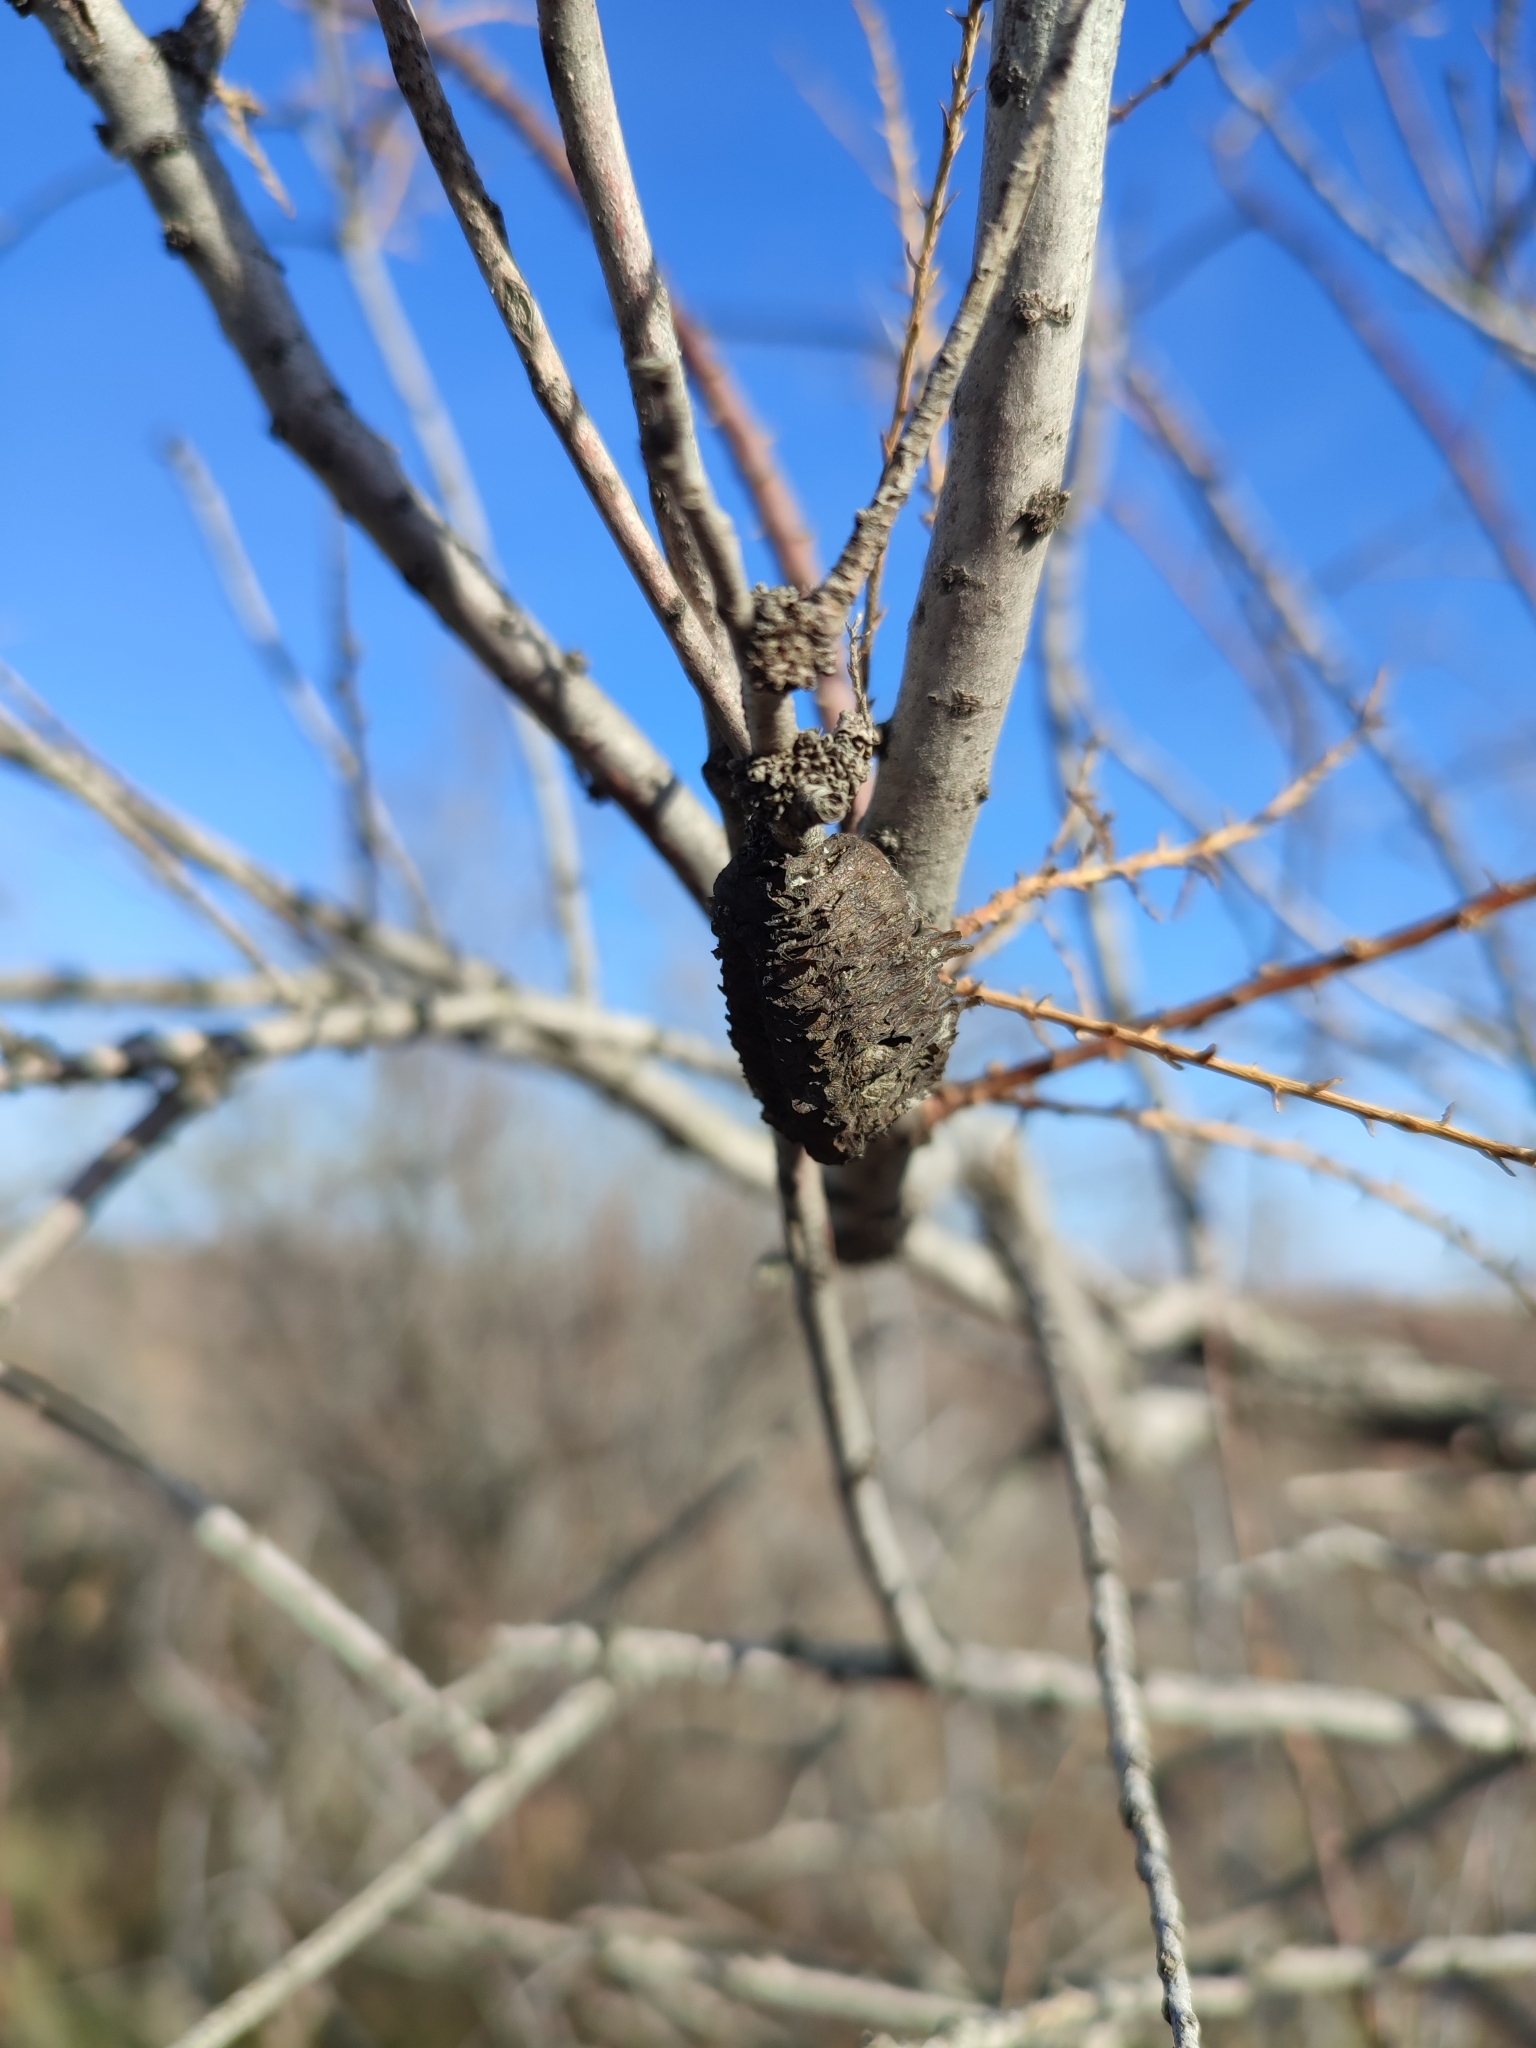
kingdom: Animalia
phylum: Arthropoda
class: Insecta
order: Mantodea
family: Mantidae
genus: Hierodula
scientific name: Hierodula transcaucasica
